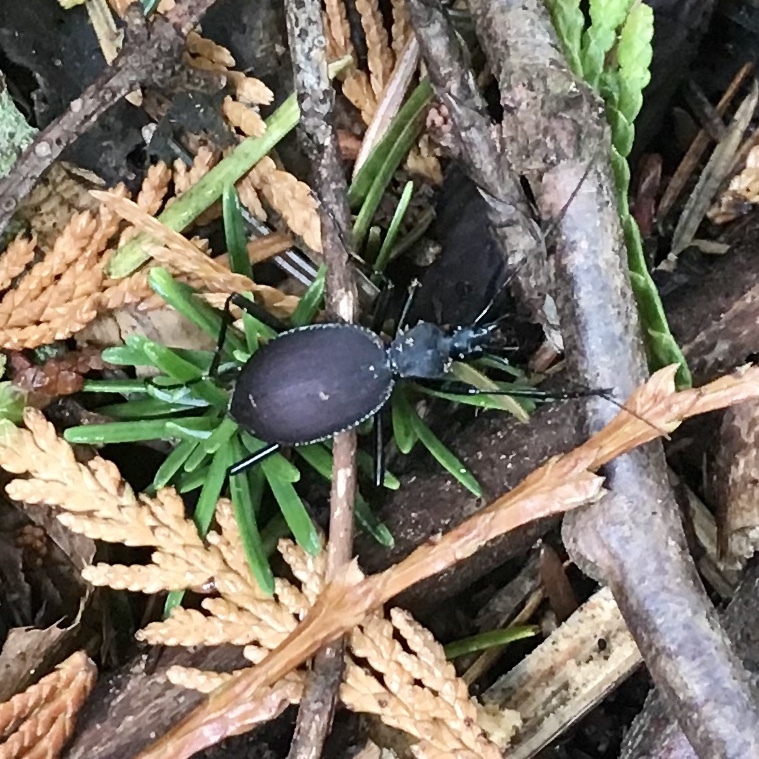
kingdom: Animalia
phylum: Arthropoda
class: Insecta
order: Coleoptera
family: Carabidae
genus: Scaphinotus
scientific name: Scaphinotus angusticollis
